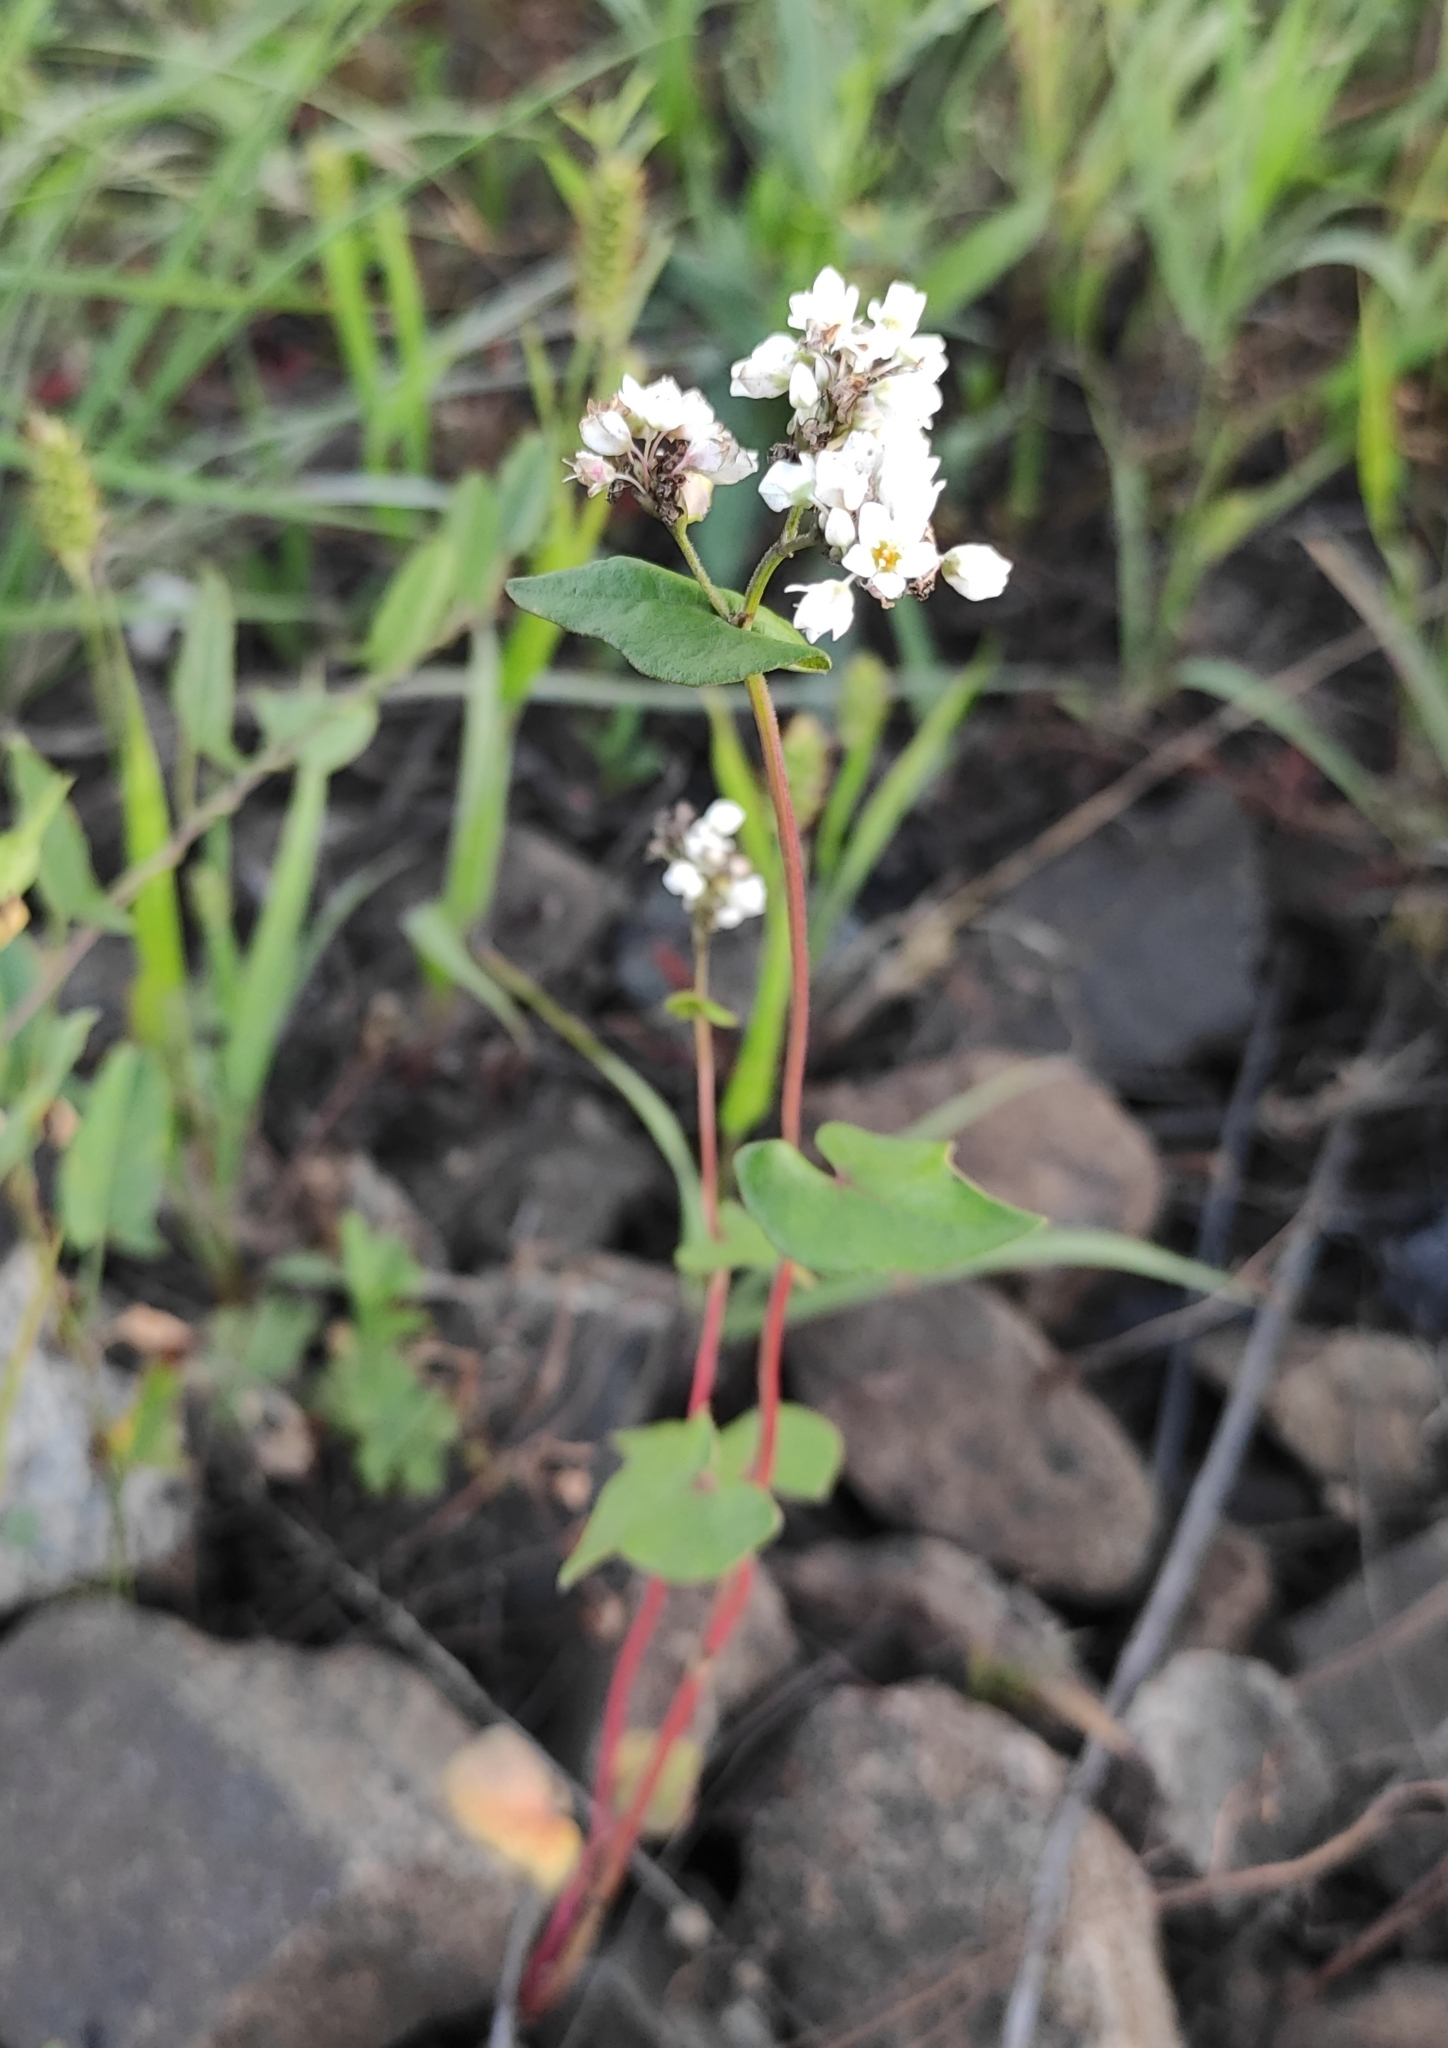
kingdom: Plantae
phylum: Tracheophyta
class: Magnoliopsida
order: Caryophyllales
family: Polygonaceae
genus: Fagopyrum
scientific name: Fagopyrum esculentum
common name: Buckwheat
